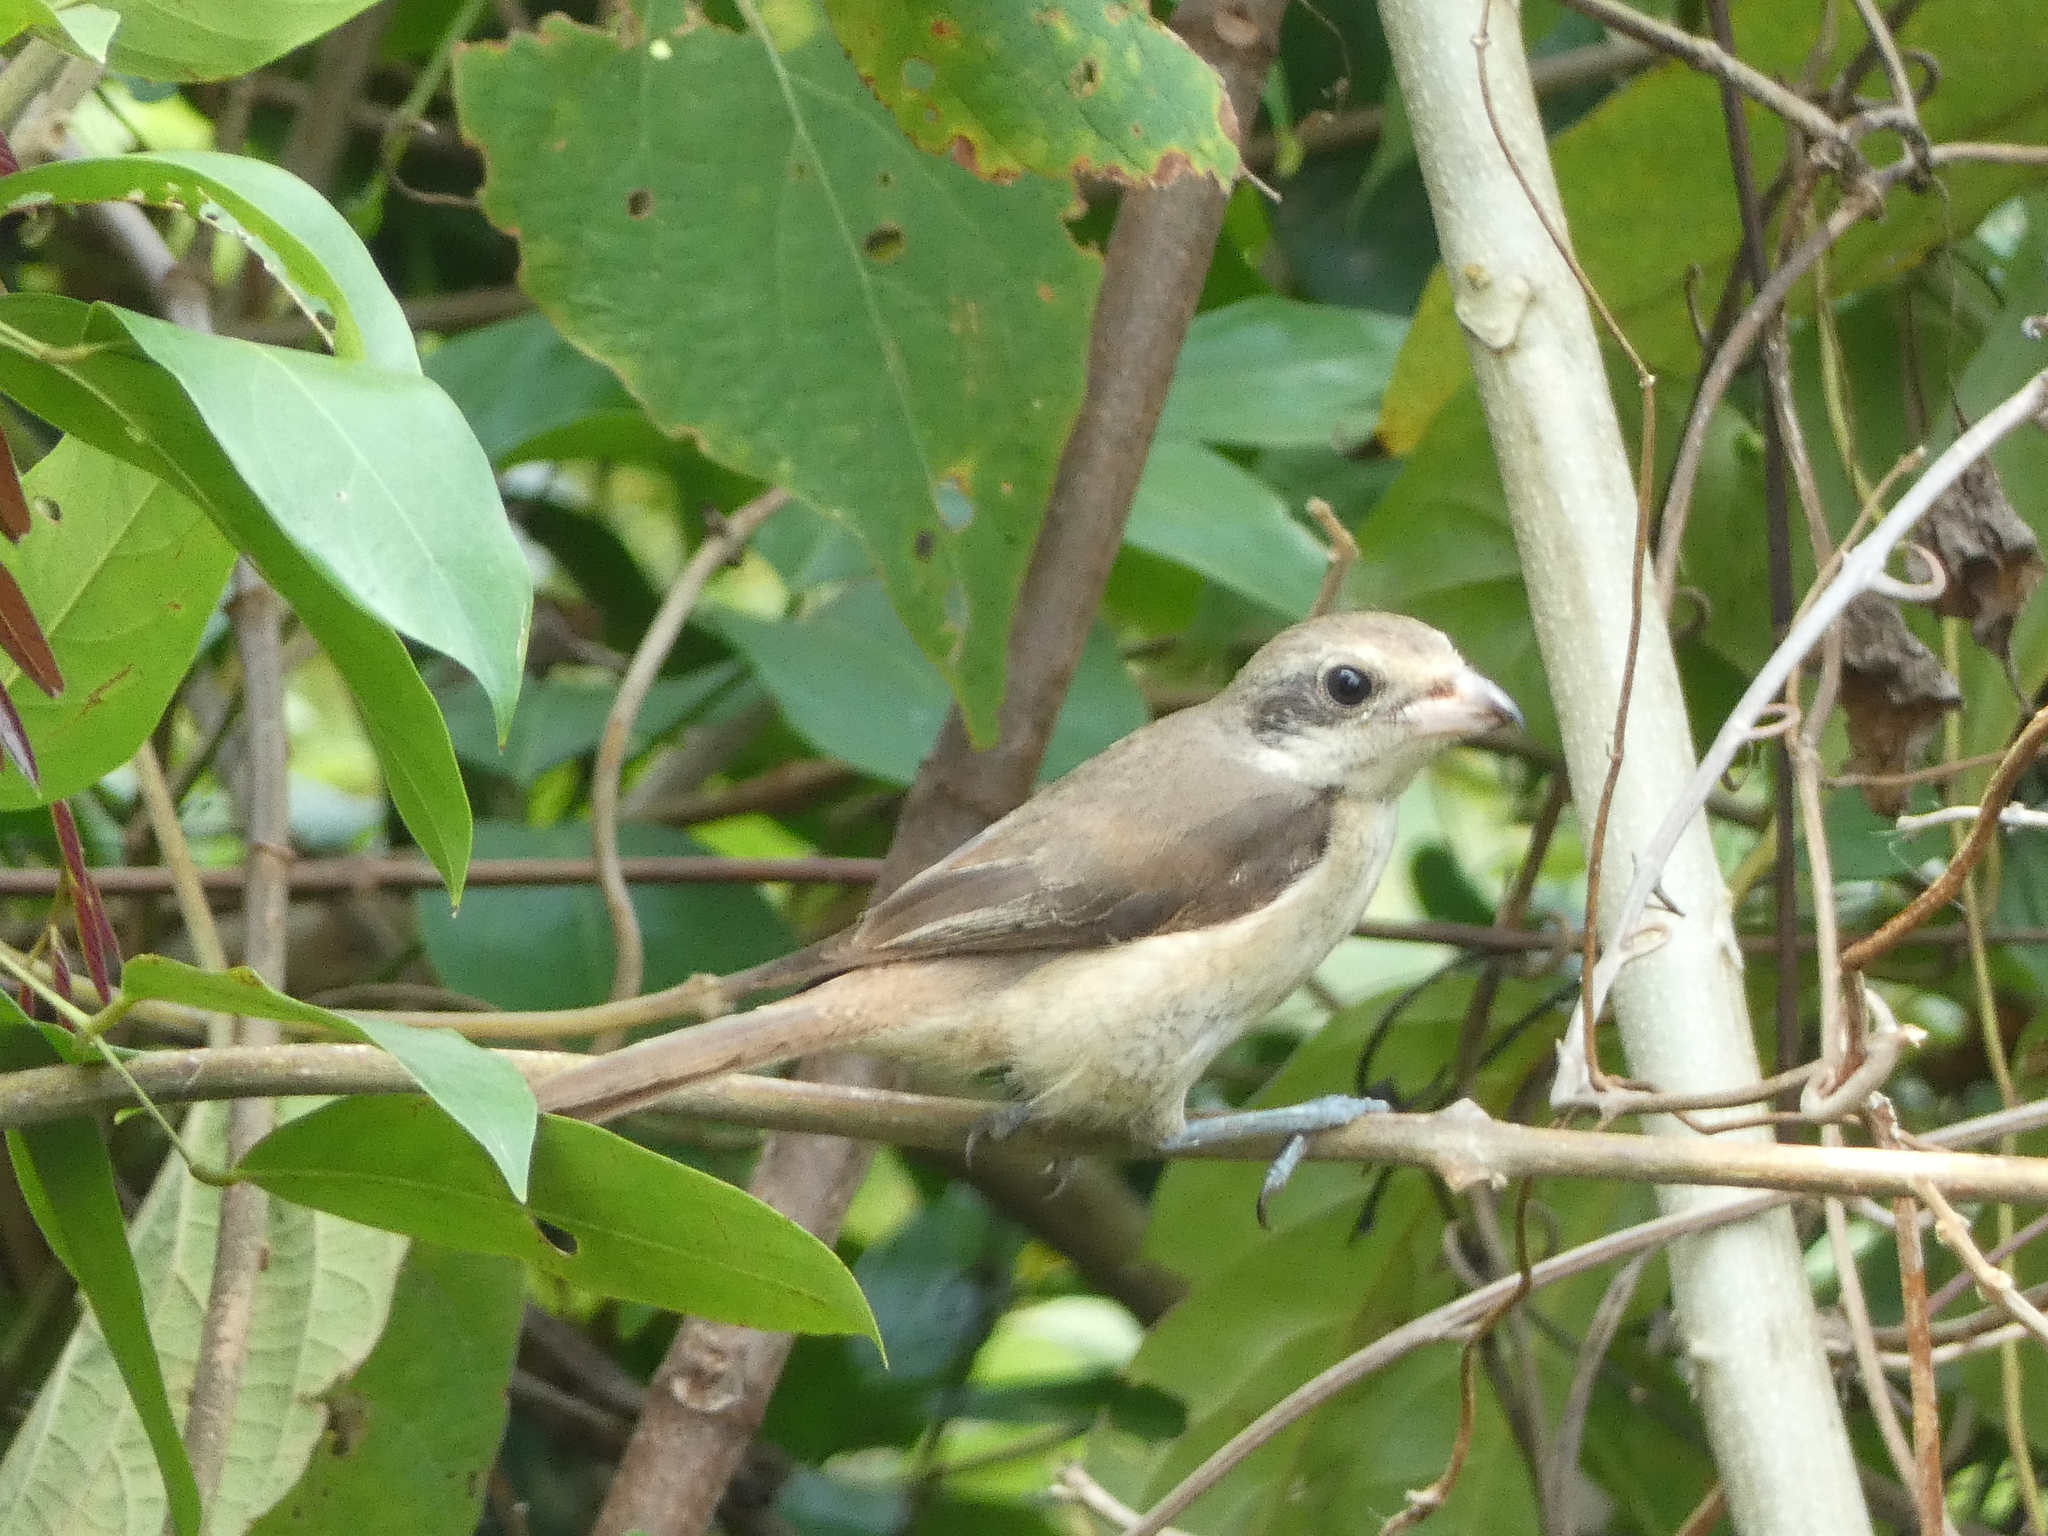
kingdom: Animalia
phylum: Chordata
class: Aves
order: Passeriformes
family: Laniidae
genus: Lanius
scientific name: Lanius cristatus
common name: Brown shrike
